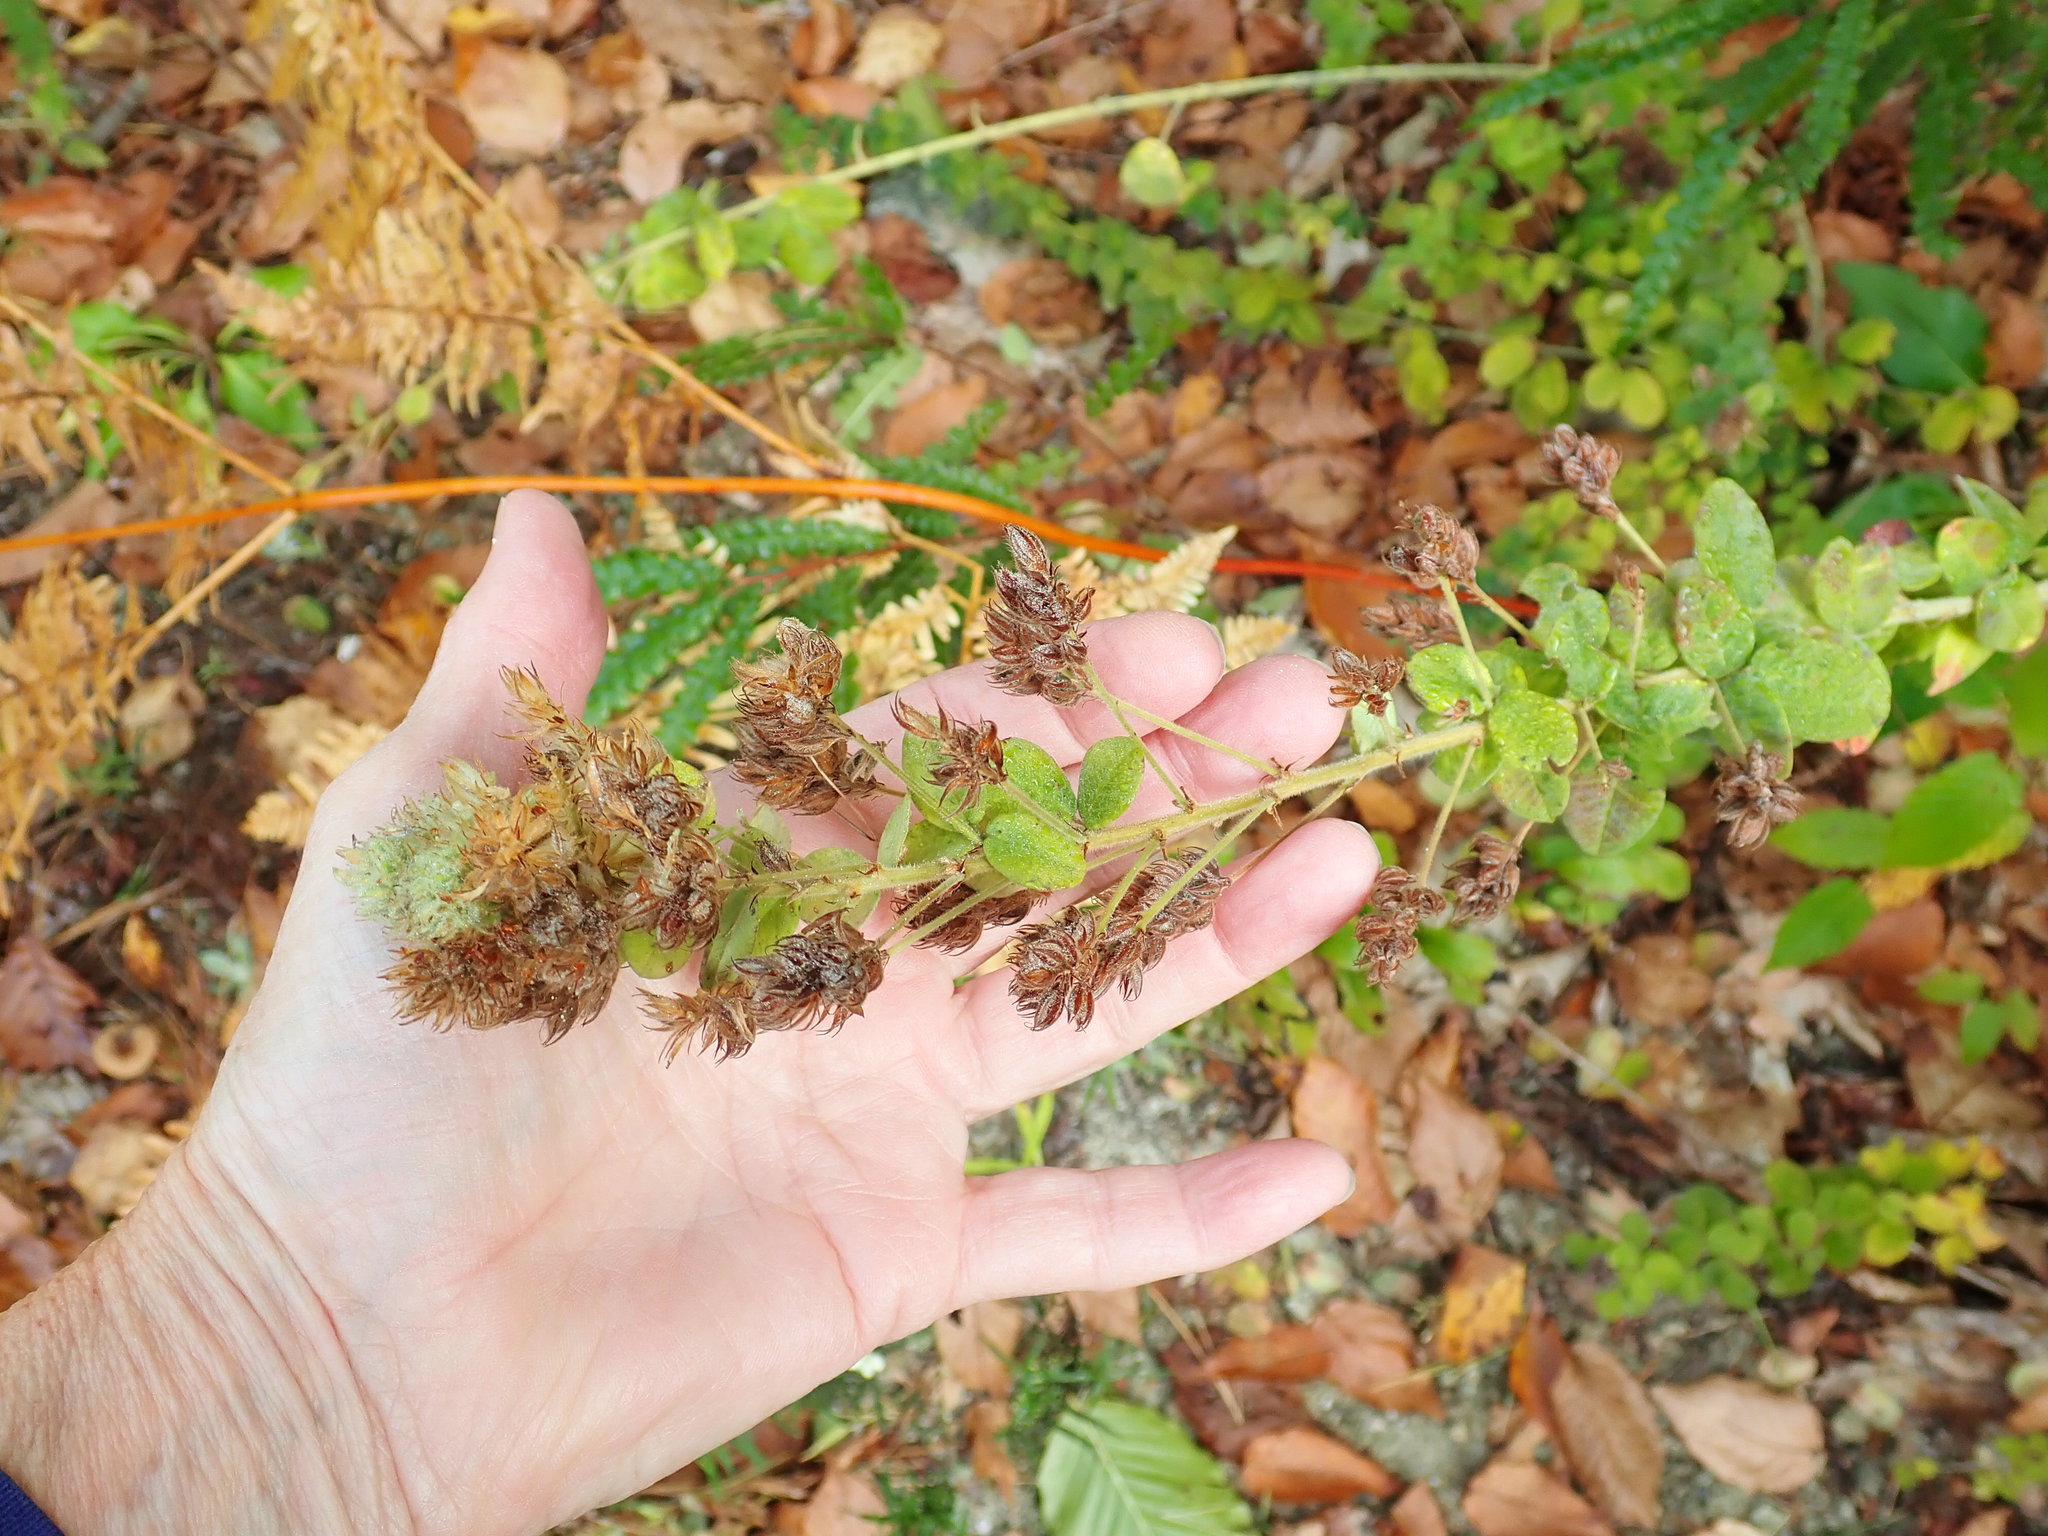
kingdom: Plantae
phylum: Tracheophyta
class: Magnoliopsida
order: Fabales
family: Fabaceae
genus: Lespedeza
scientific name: Lespedeza hirta
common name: Hairy lespedeza
